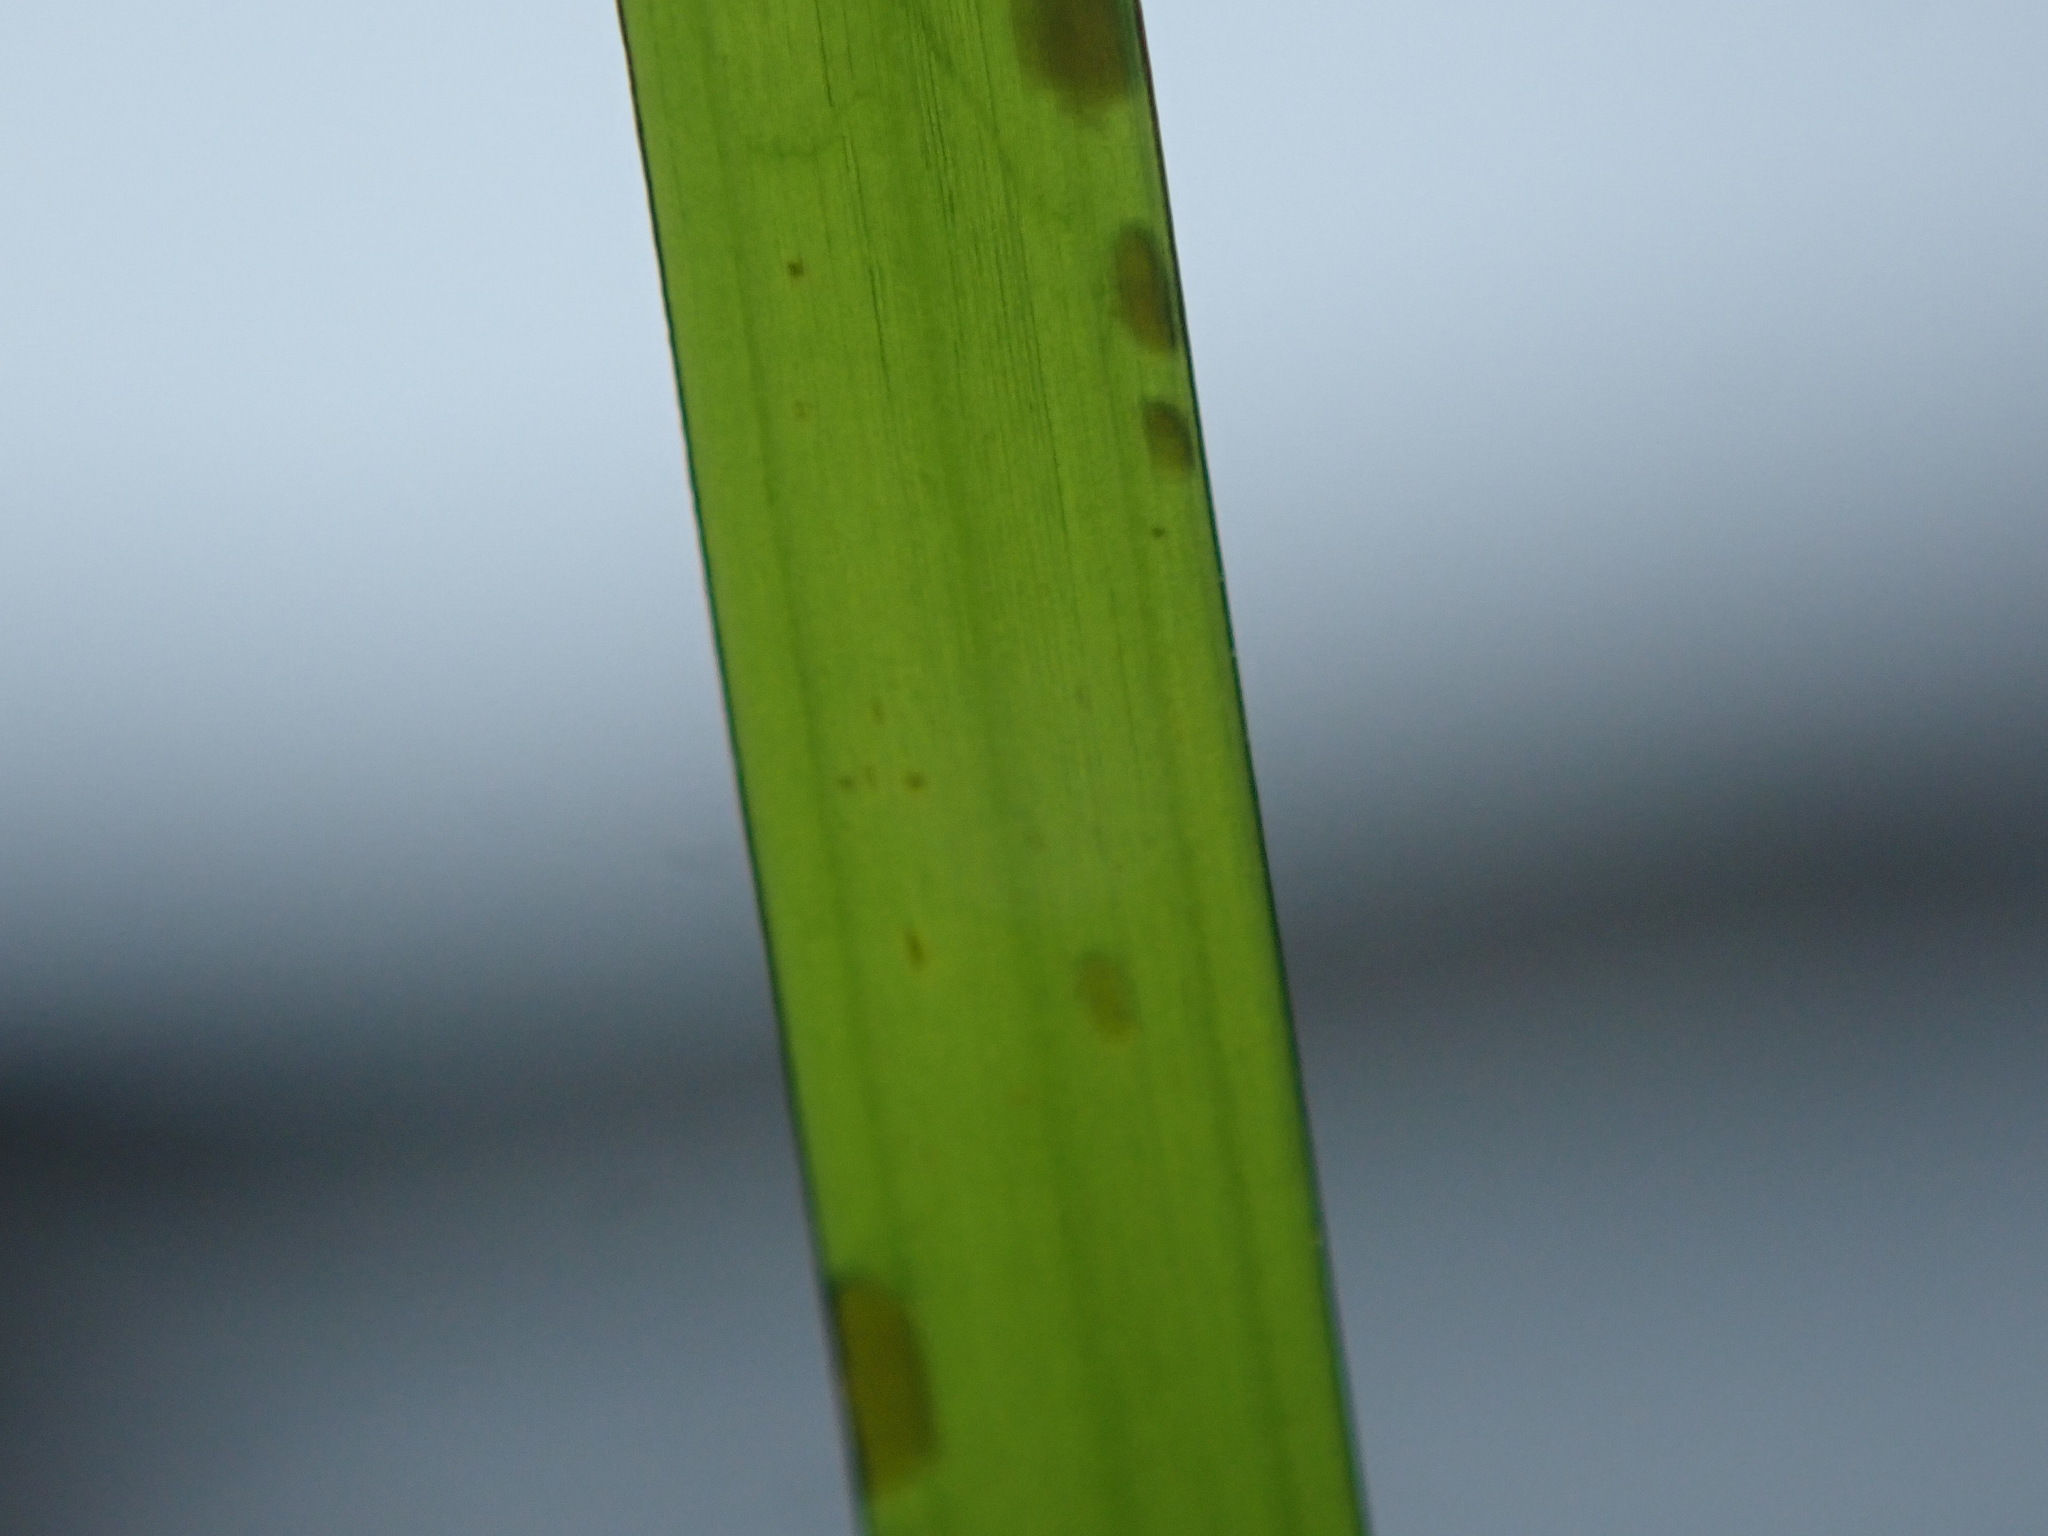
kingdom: Plantae
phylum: Tracheophyta
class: Liliopsida
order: Alismatales
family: Zosteraceae
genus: Phyllospadix
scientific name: Phyllospadix scouleri
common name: Species code: ps
